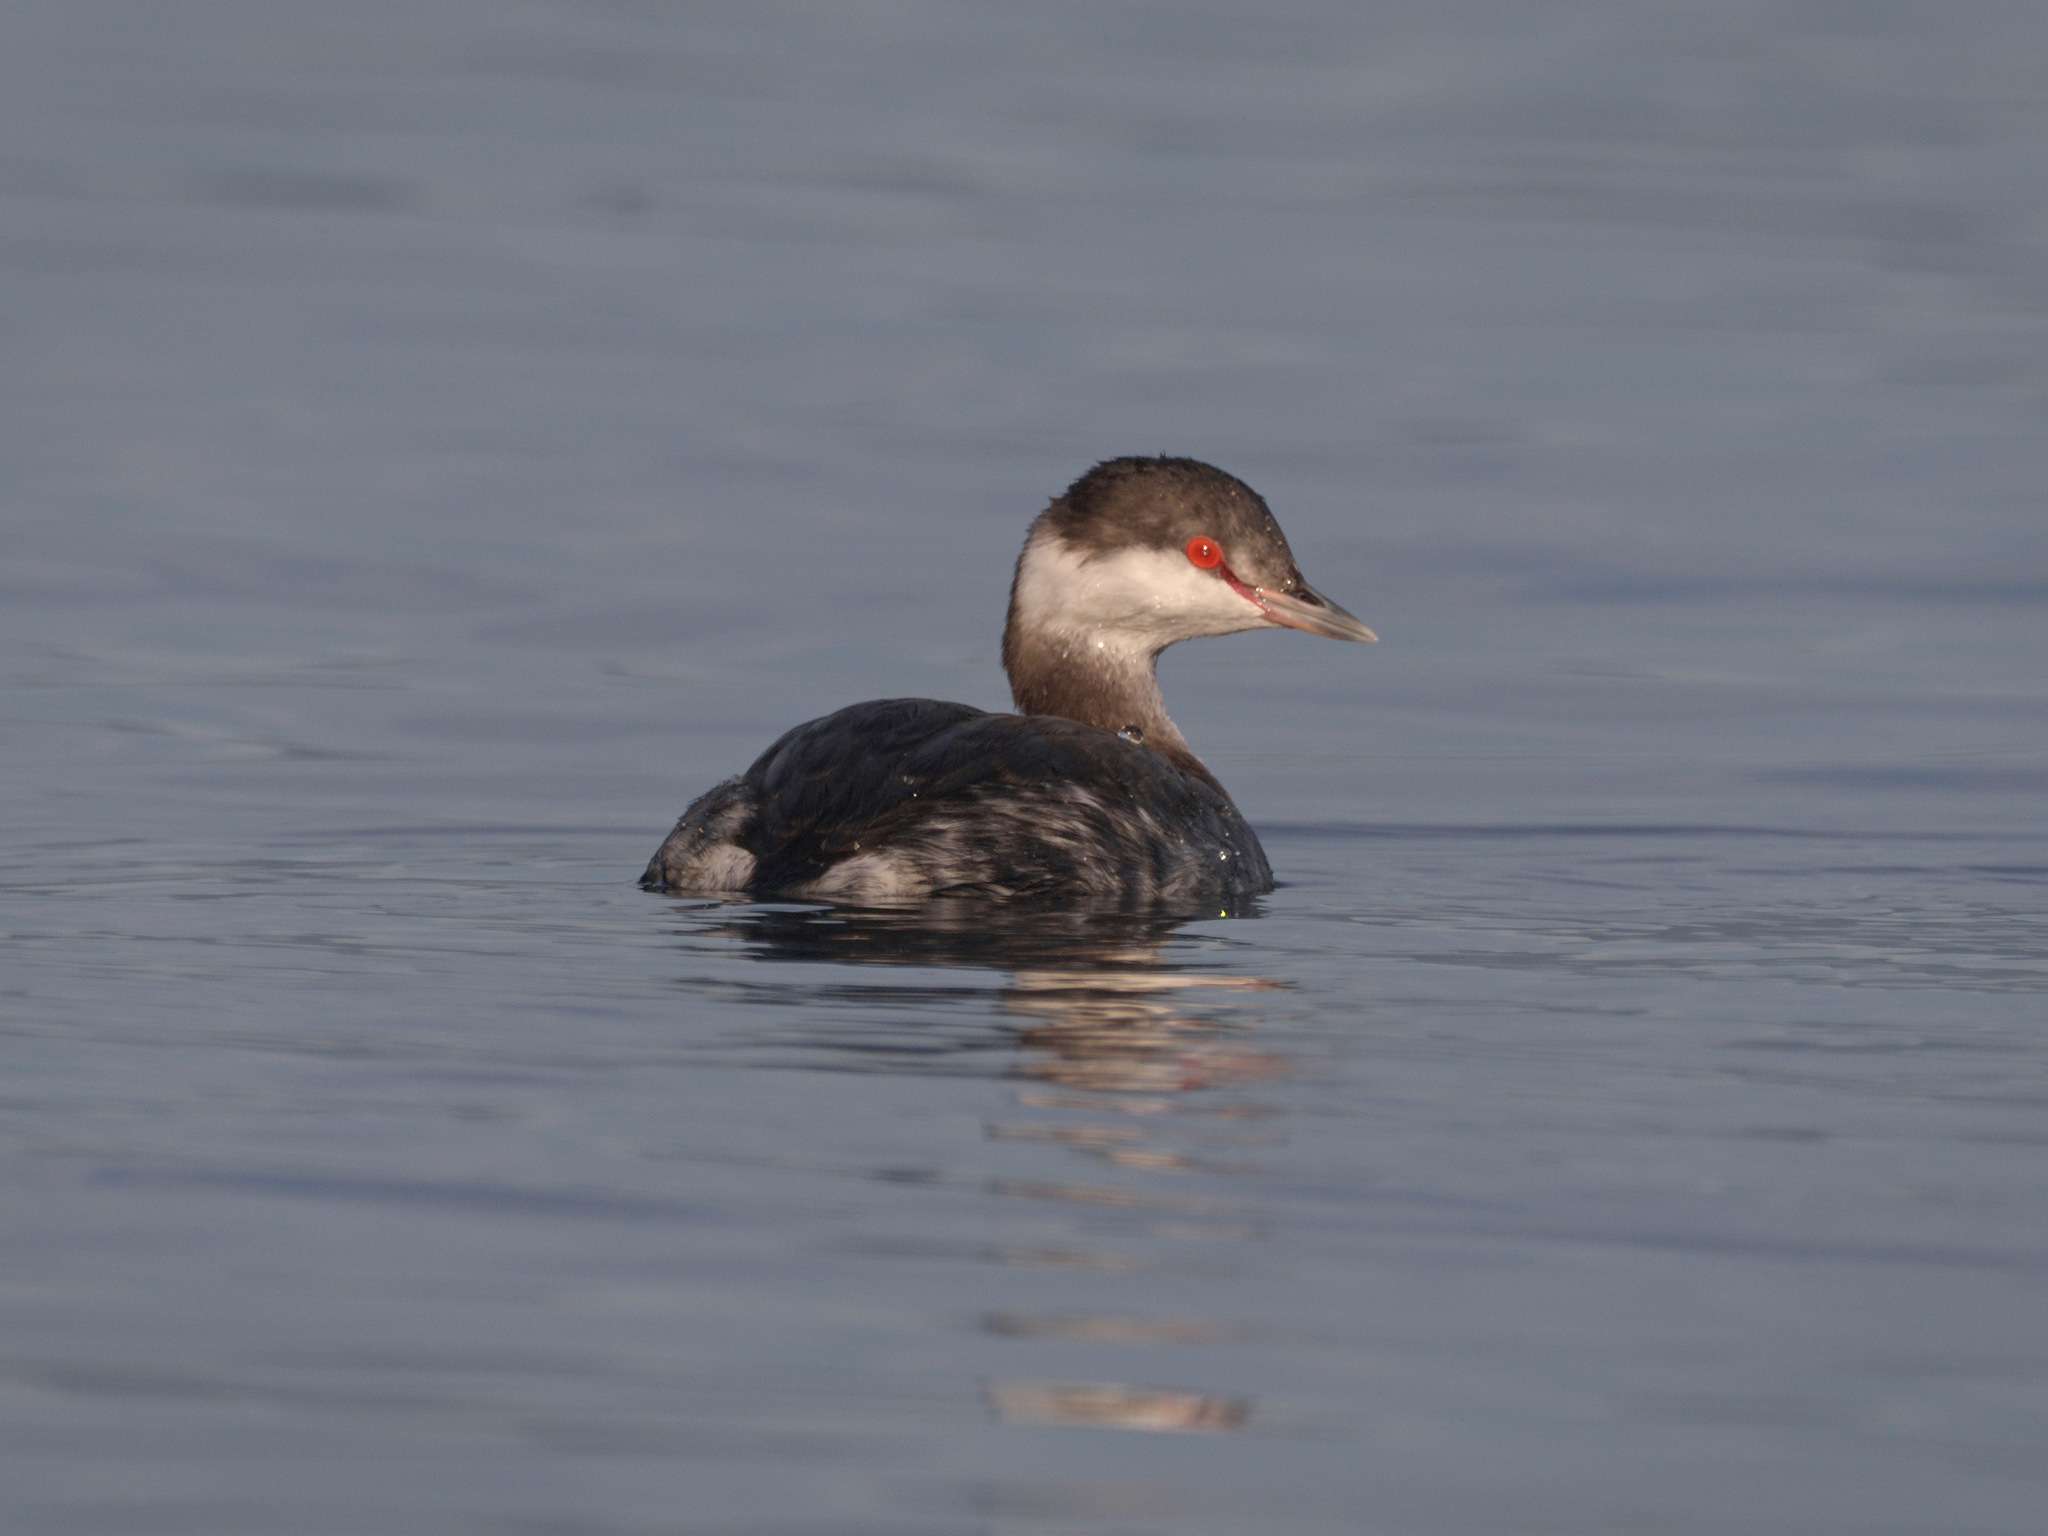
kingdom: Animalia
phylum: Chordata
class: Aves
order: Podicipediformes
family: Podicipedidae
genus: Podiceps
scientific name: Podiceps auritus
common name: Horned grebe
